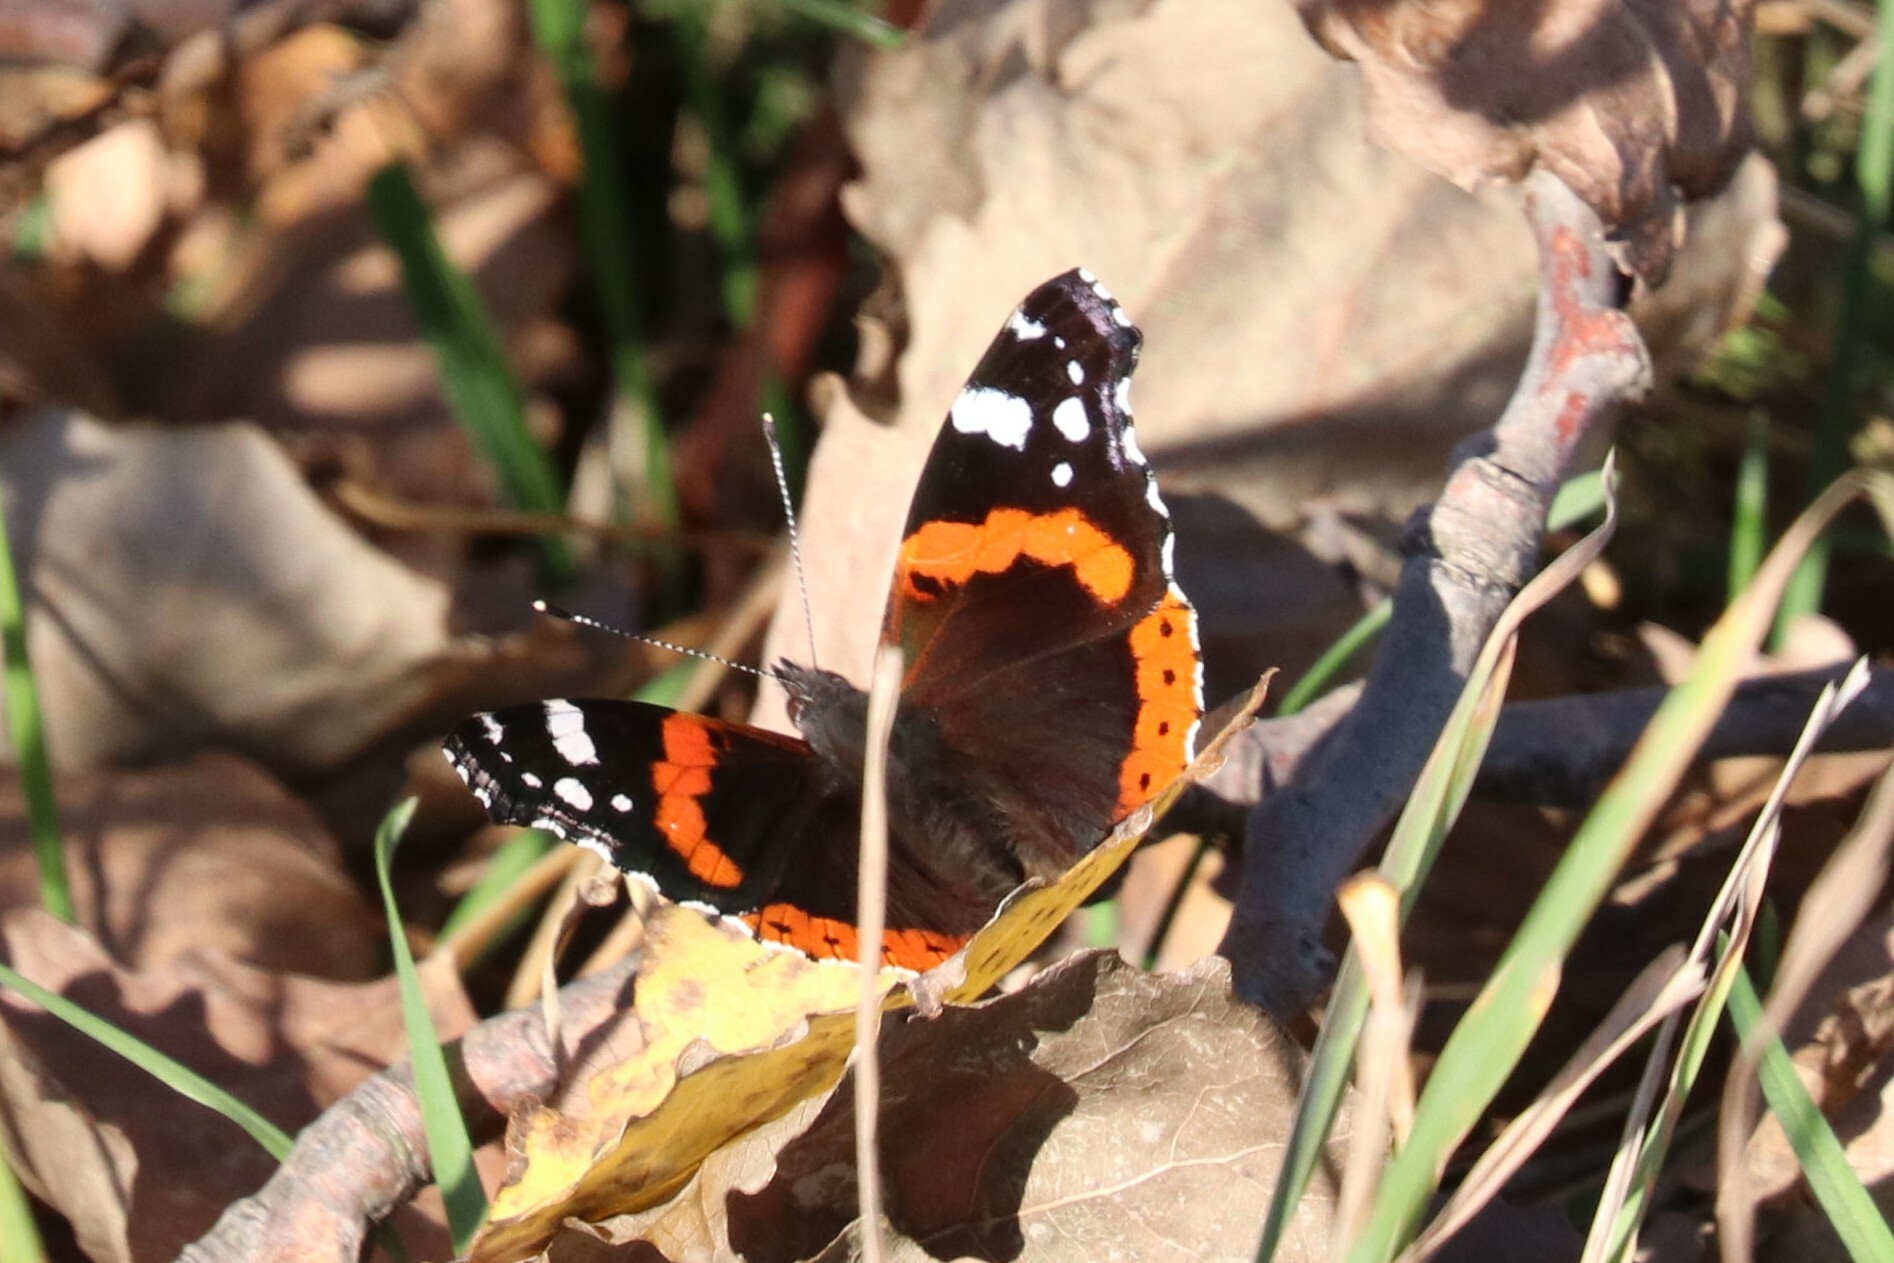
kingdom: Animalia
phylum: Arthropoda
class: Insecta
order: Lepidoptera
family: Nymphalidae
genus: Vanessa
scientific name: Vanessa atalanta
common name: Red admiral
